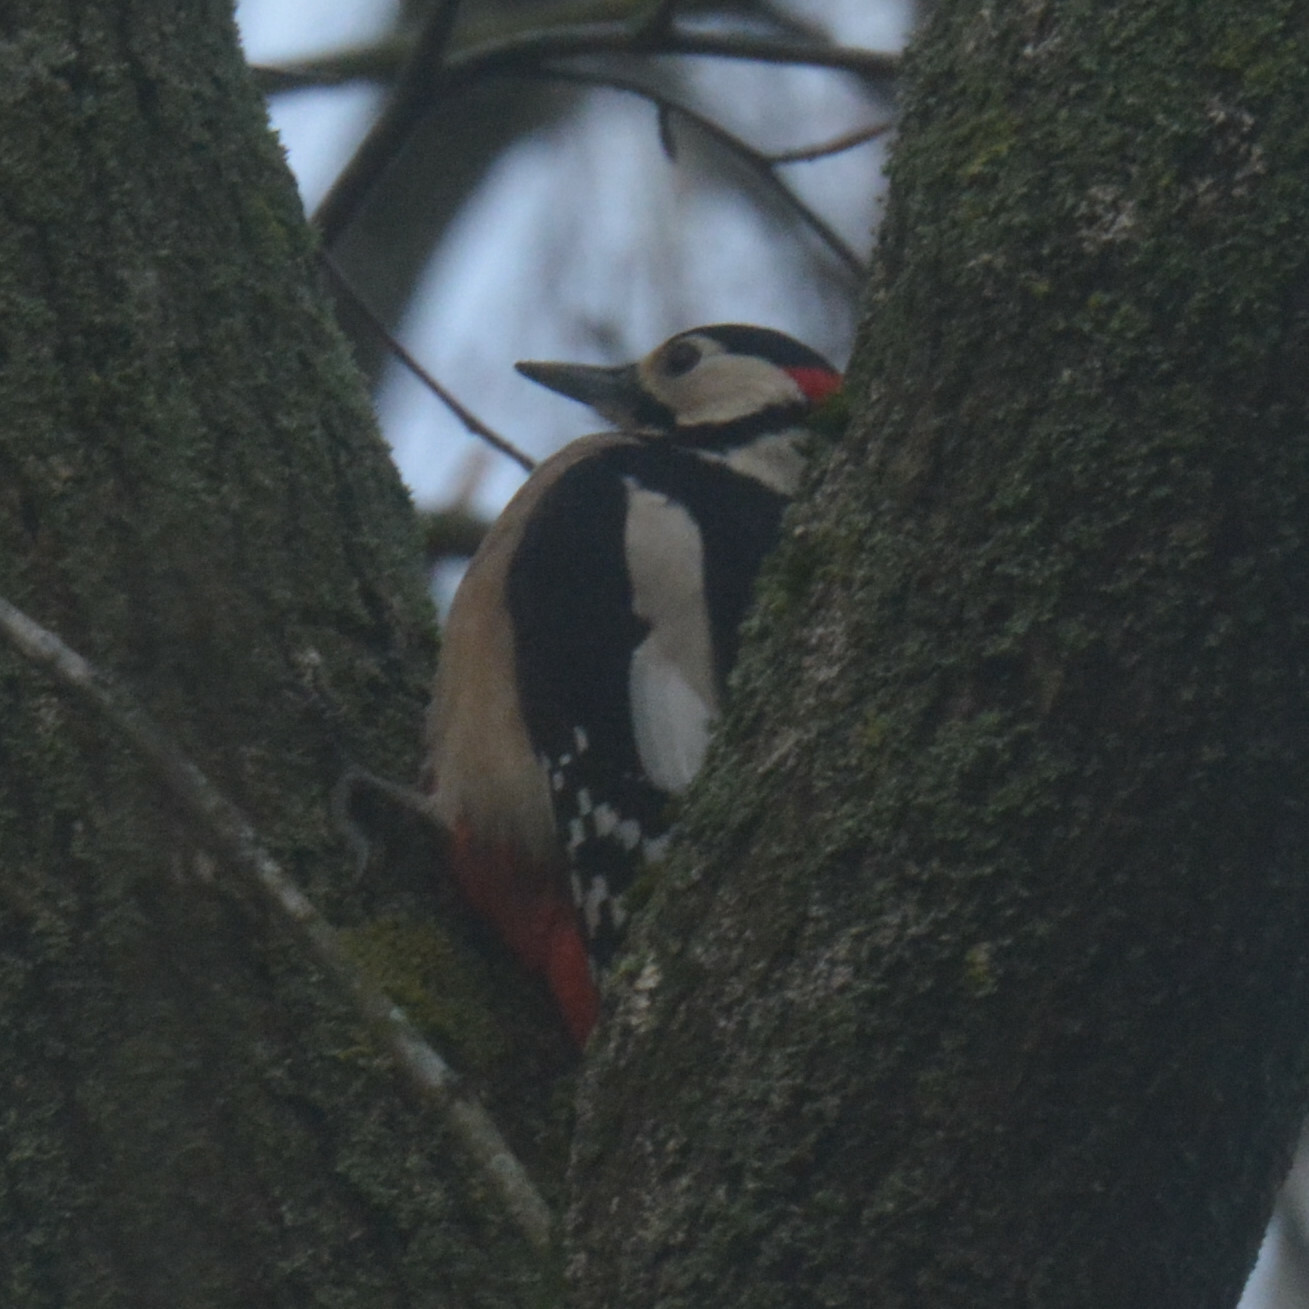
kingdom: Animalia
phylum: Chordata
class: Aves
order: Piciformes
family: Picidae
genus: Dendrocopos
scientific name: Dendrocopos major
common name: Great spotted woodpecker
